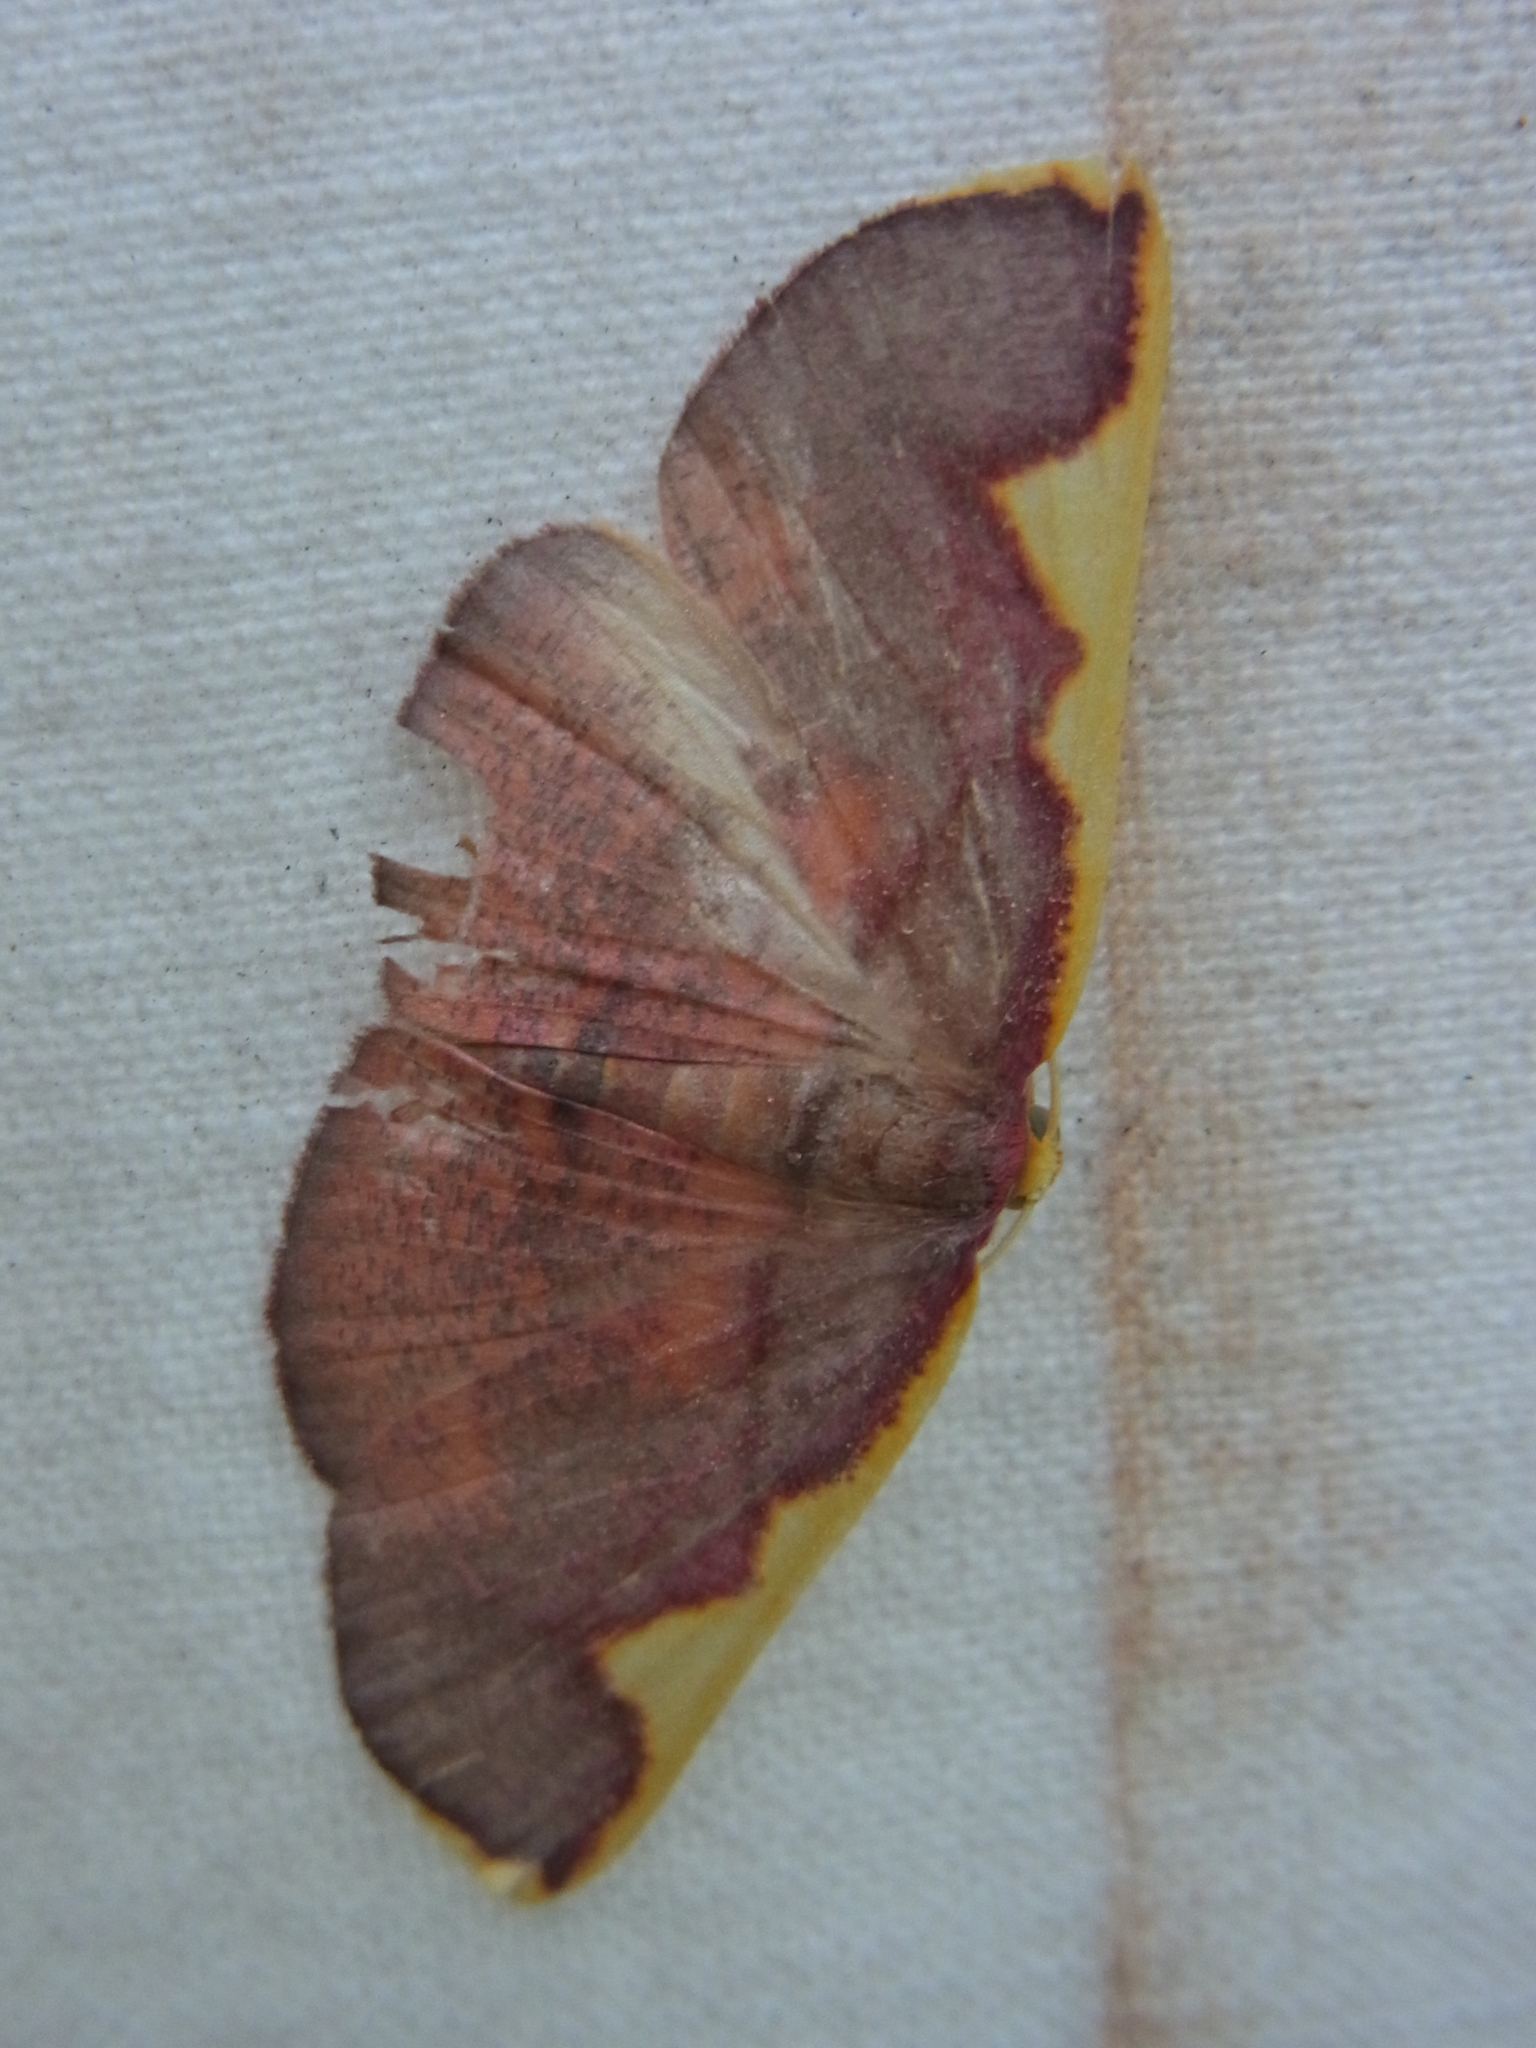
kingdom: Animalia
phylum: Arthropoda
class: Insecta
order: Lepidoptera
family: Geometridae
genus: Nothomiza
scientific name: Nothomiza formosa
